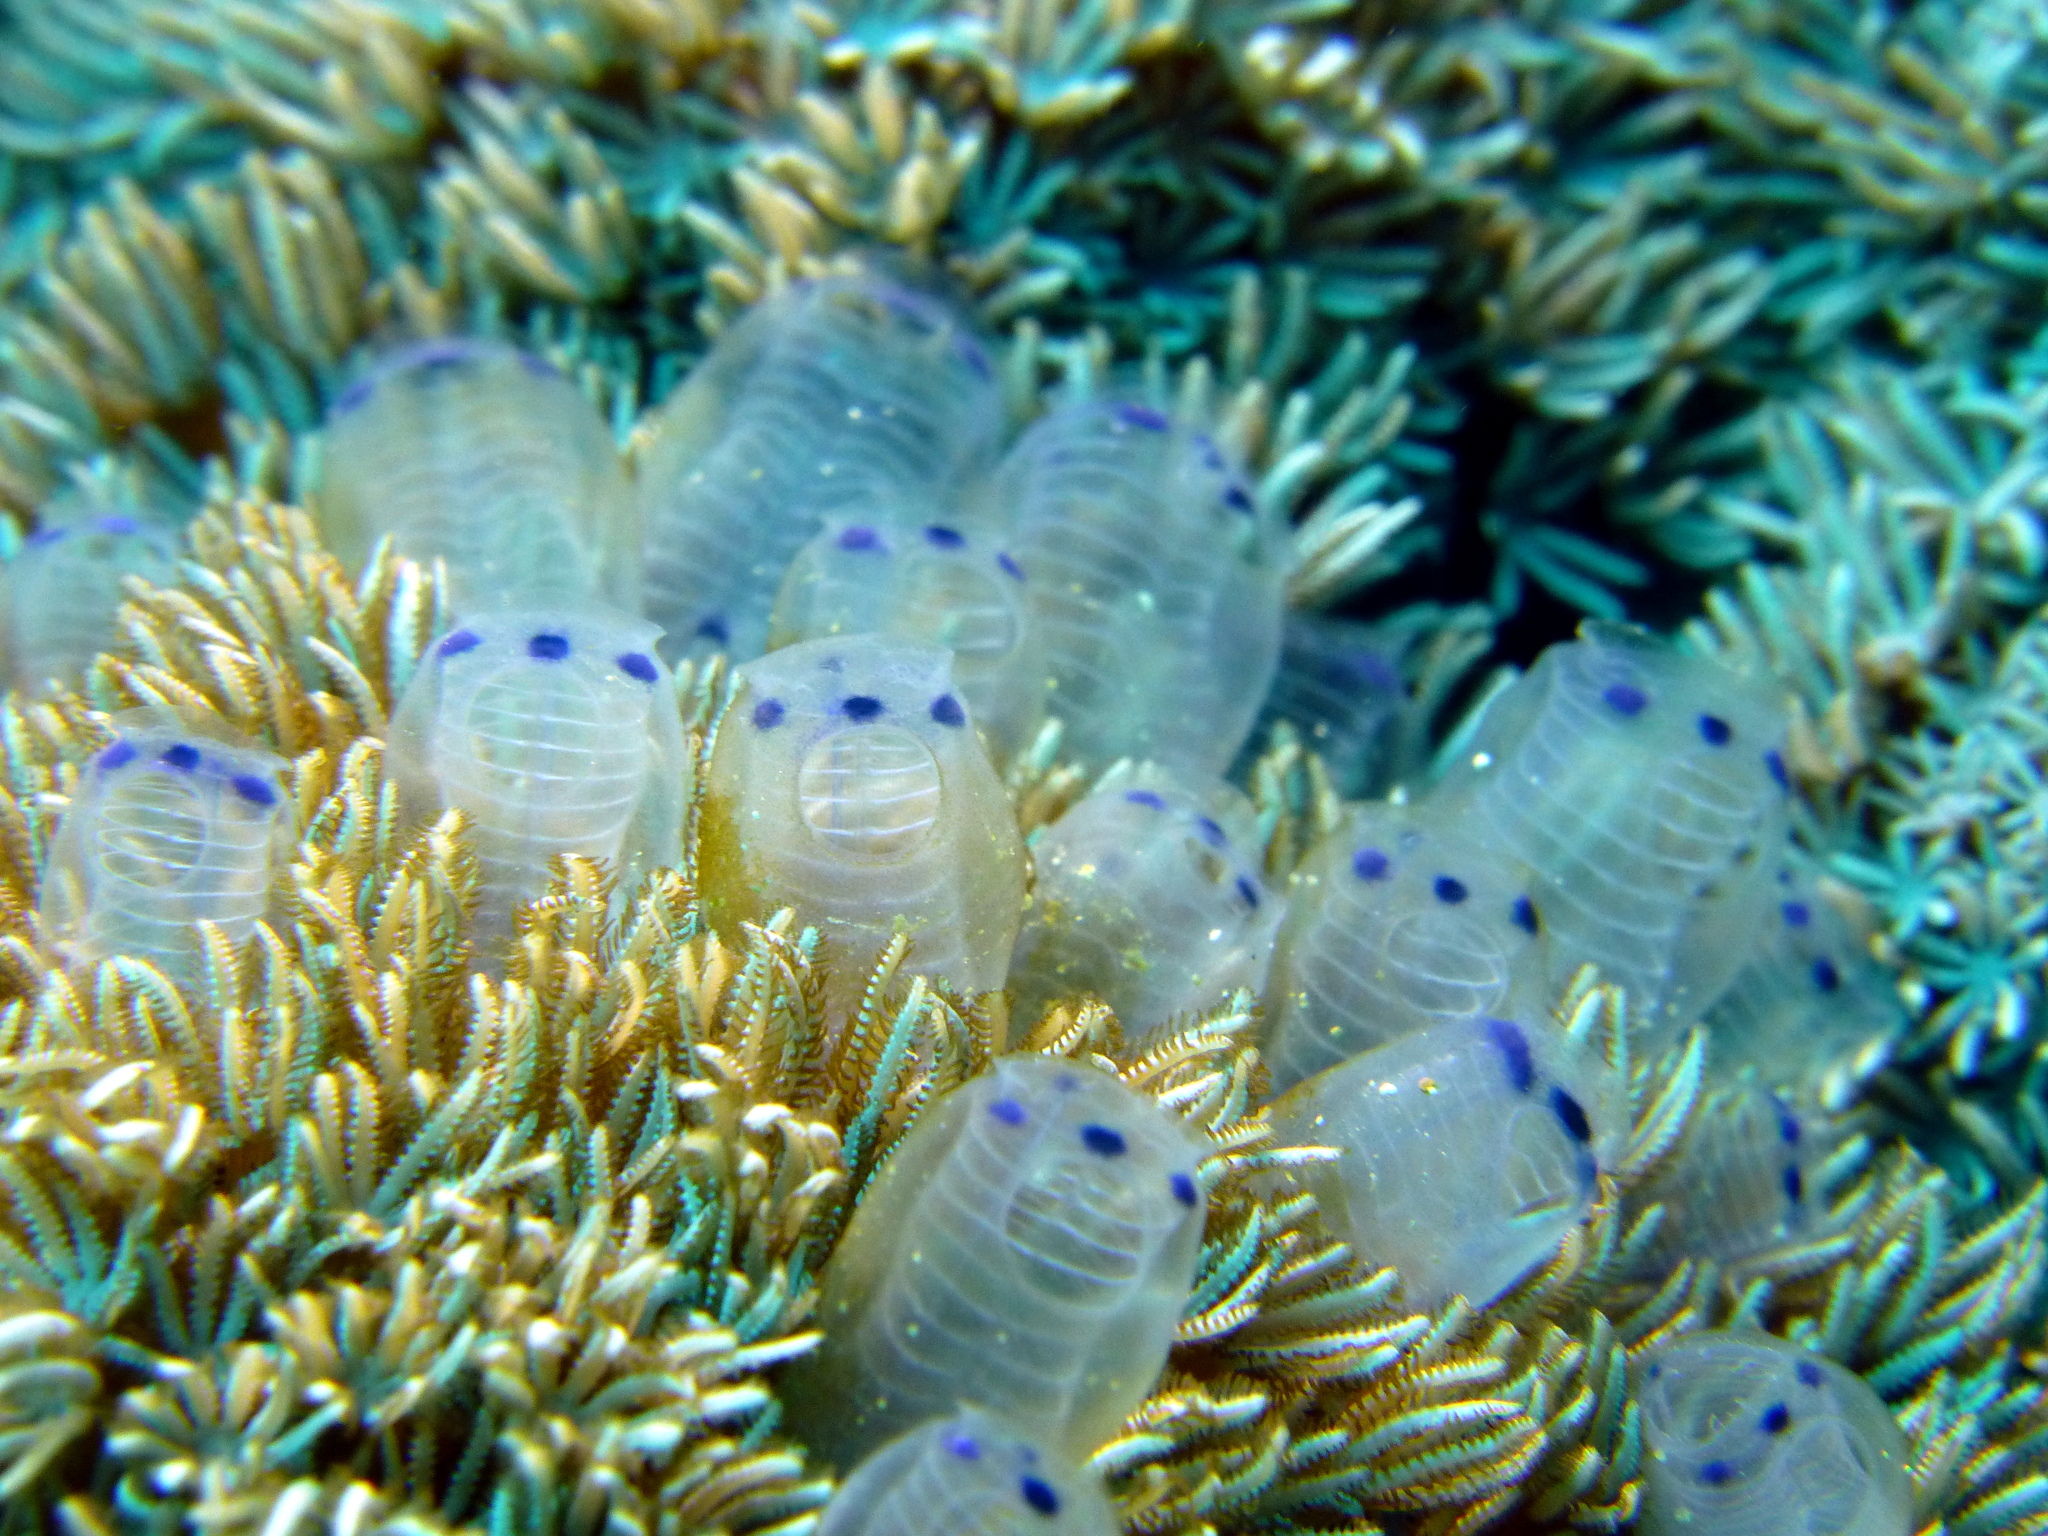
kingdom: Animalia
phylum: Chordata
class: Ascidiacea
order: Aplousobranchia
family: Clavelinidae
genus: Clavelina
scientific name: Clavelina moluccensis
